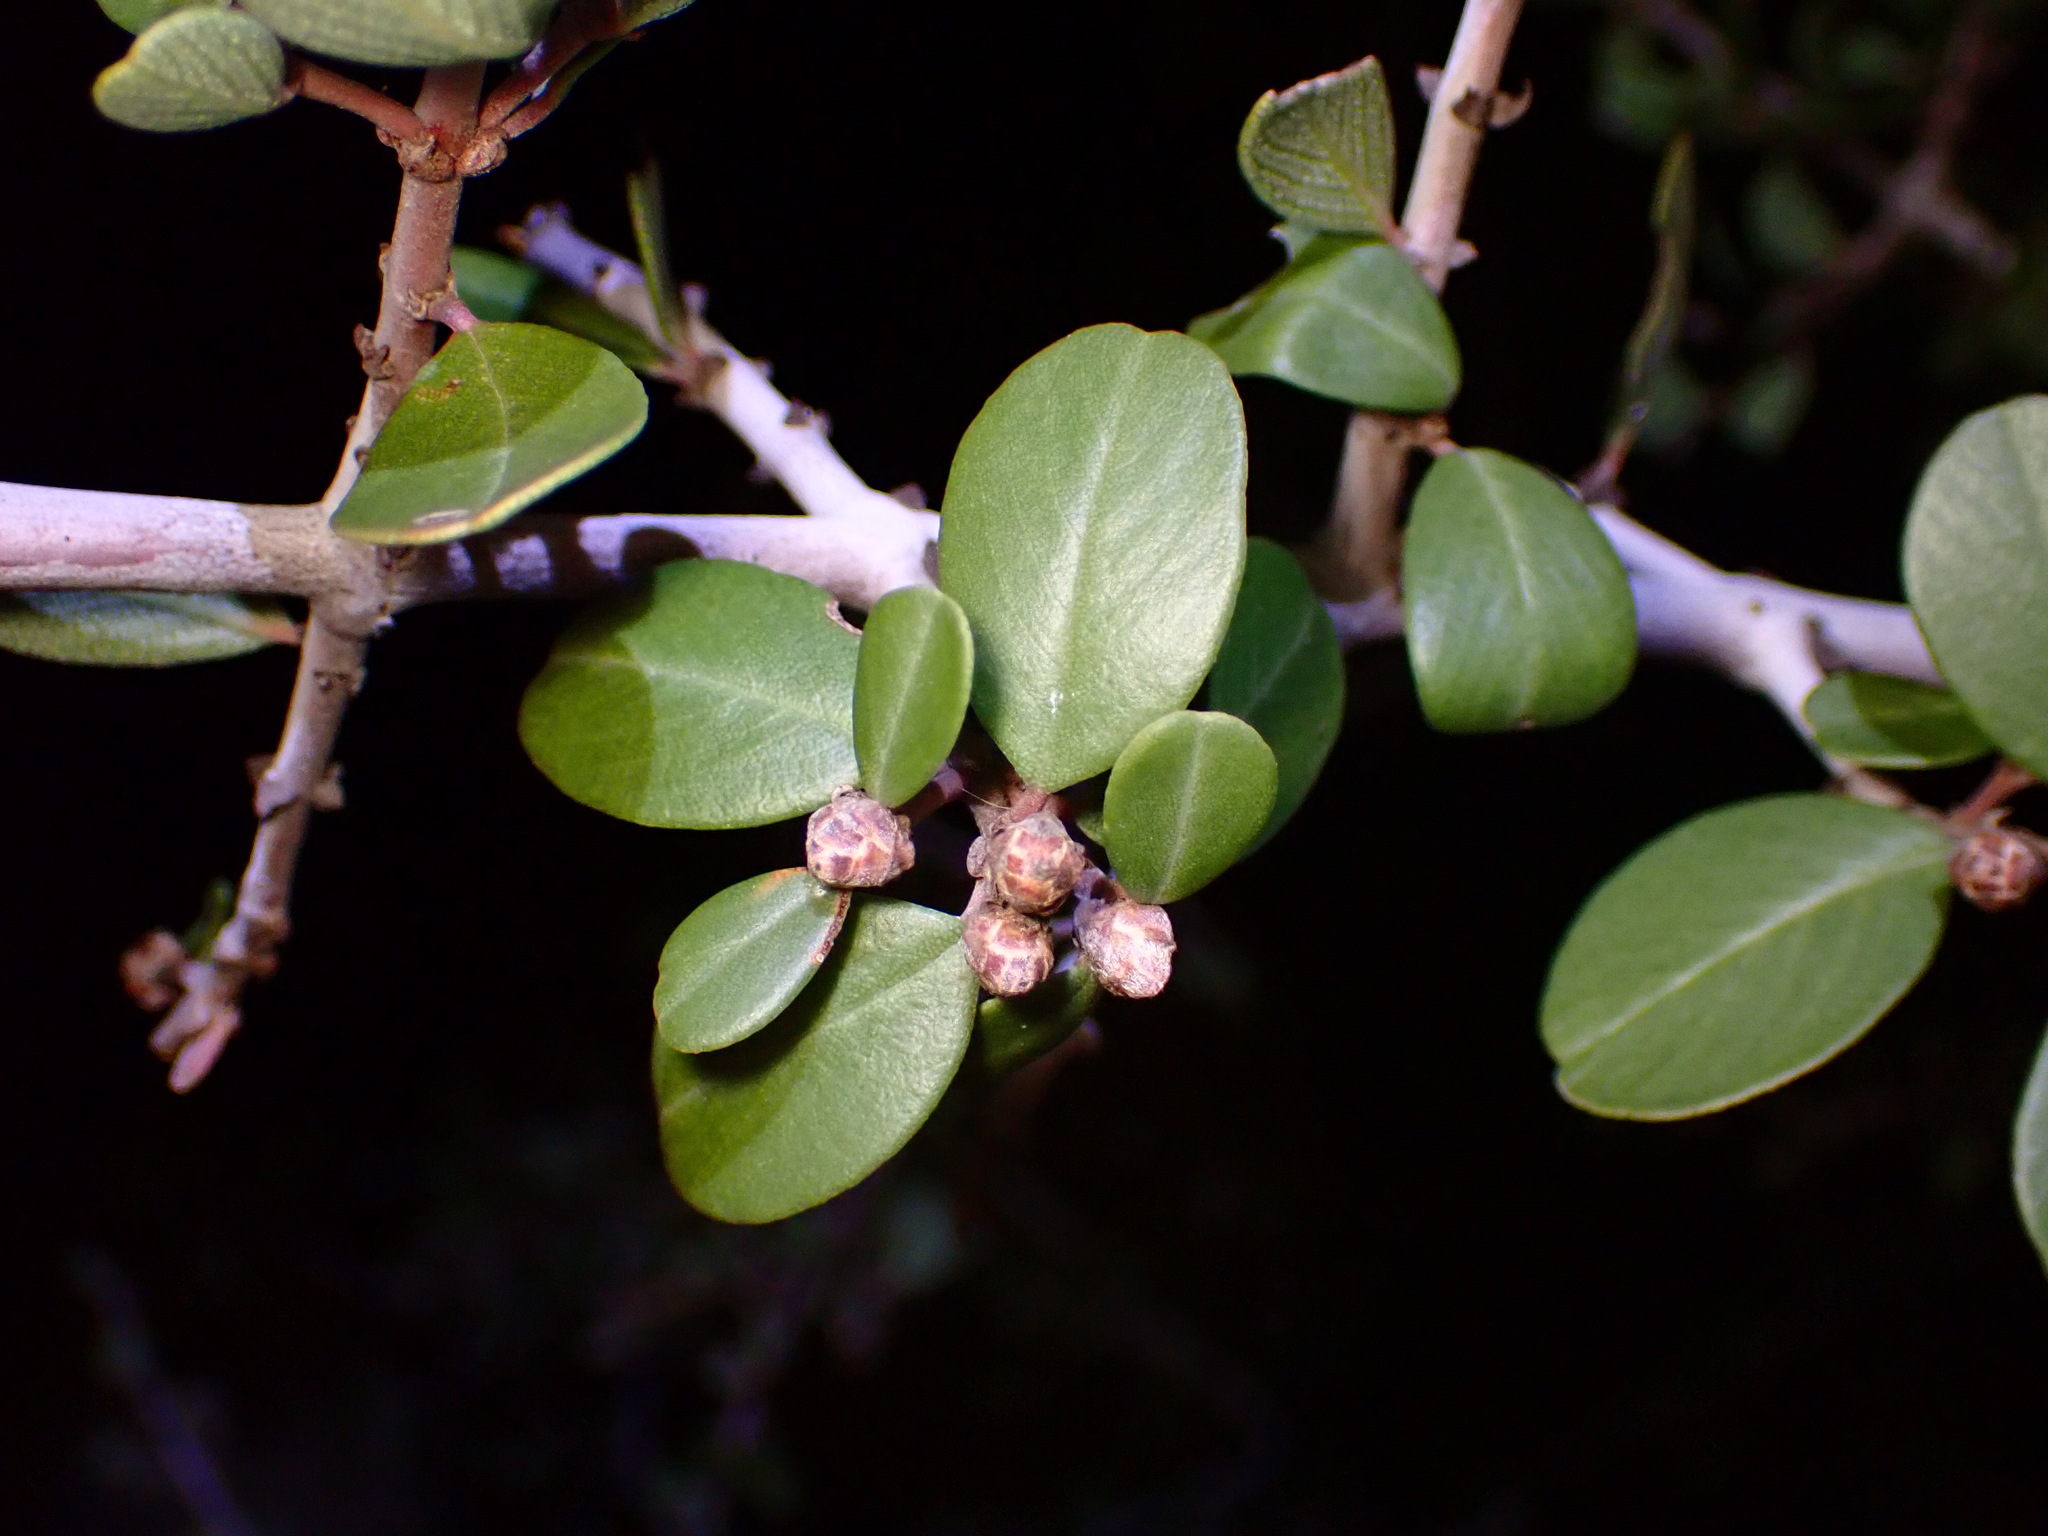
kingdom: Plantae
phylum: Tracheophyta
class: Magnoliopsida
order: Rosales
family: Rhamnaceae
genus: Ceanothus
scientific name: Ceanothus cuneatus
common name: Cuneate ceanothus
